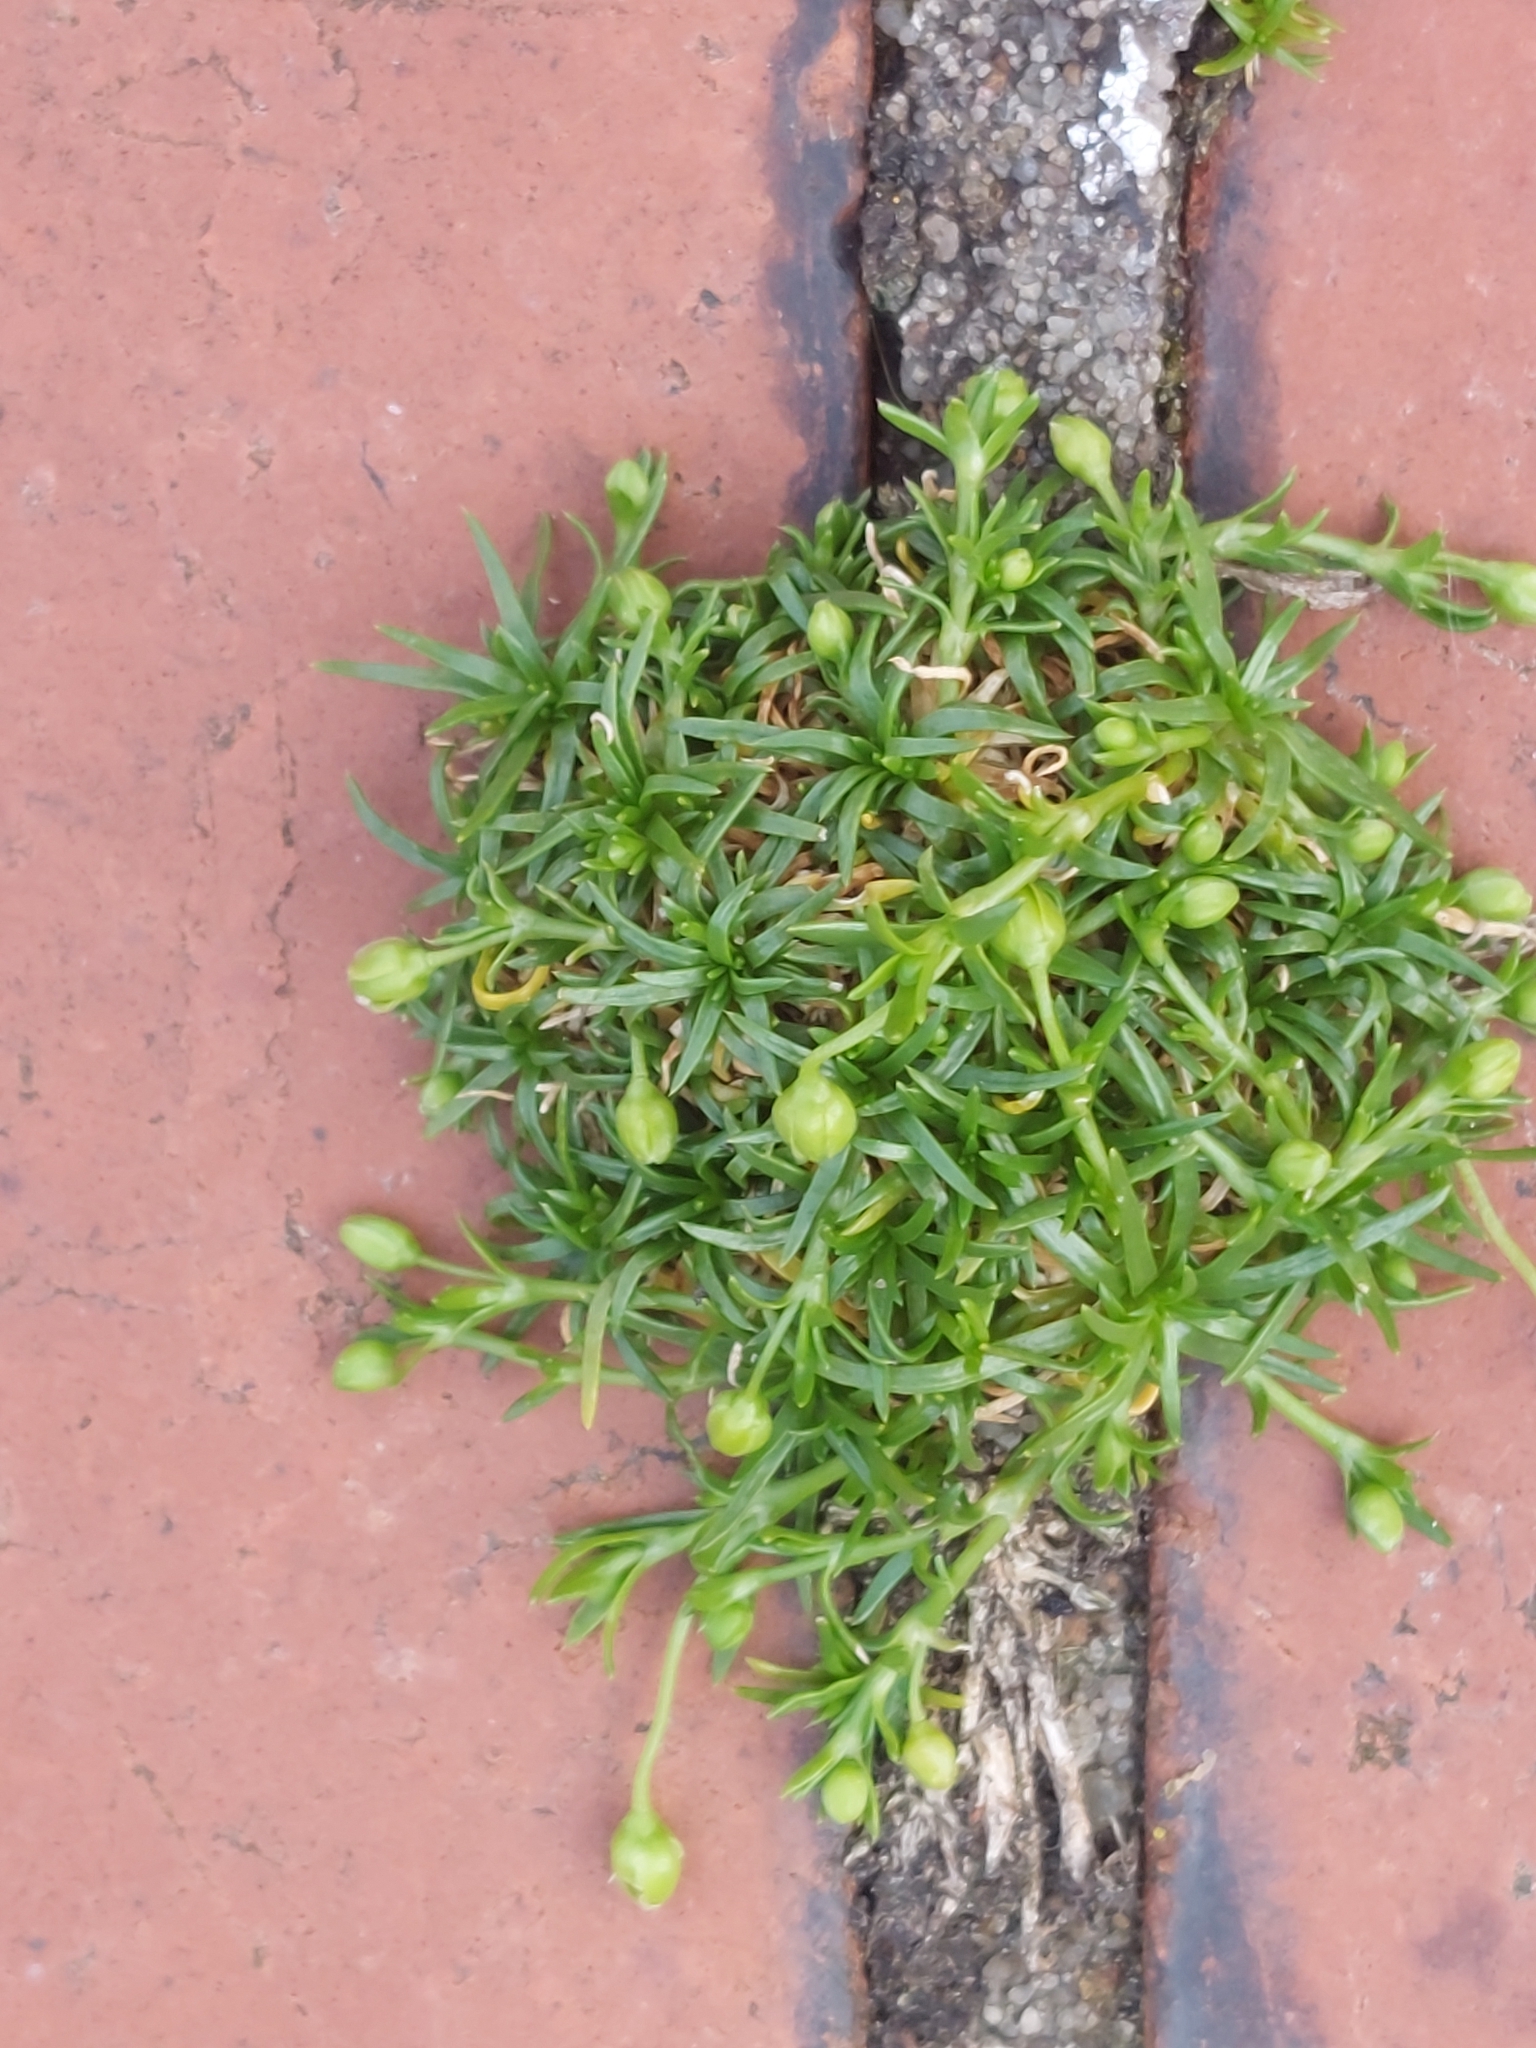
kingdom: Plantae
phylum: Tracheophyta
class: Magnoliopsida
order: Caryophyllales
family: Caryophyllaceae
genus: Sagina
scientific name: Sagina procumbens
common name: Procumbent pearlwort
